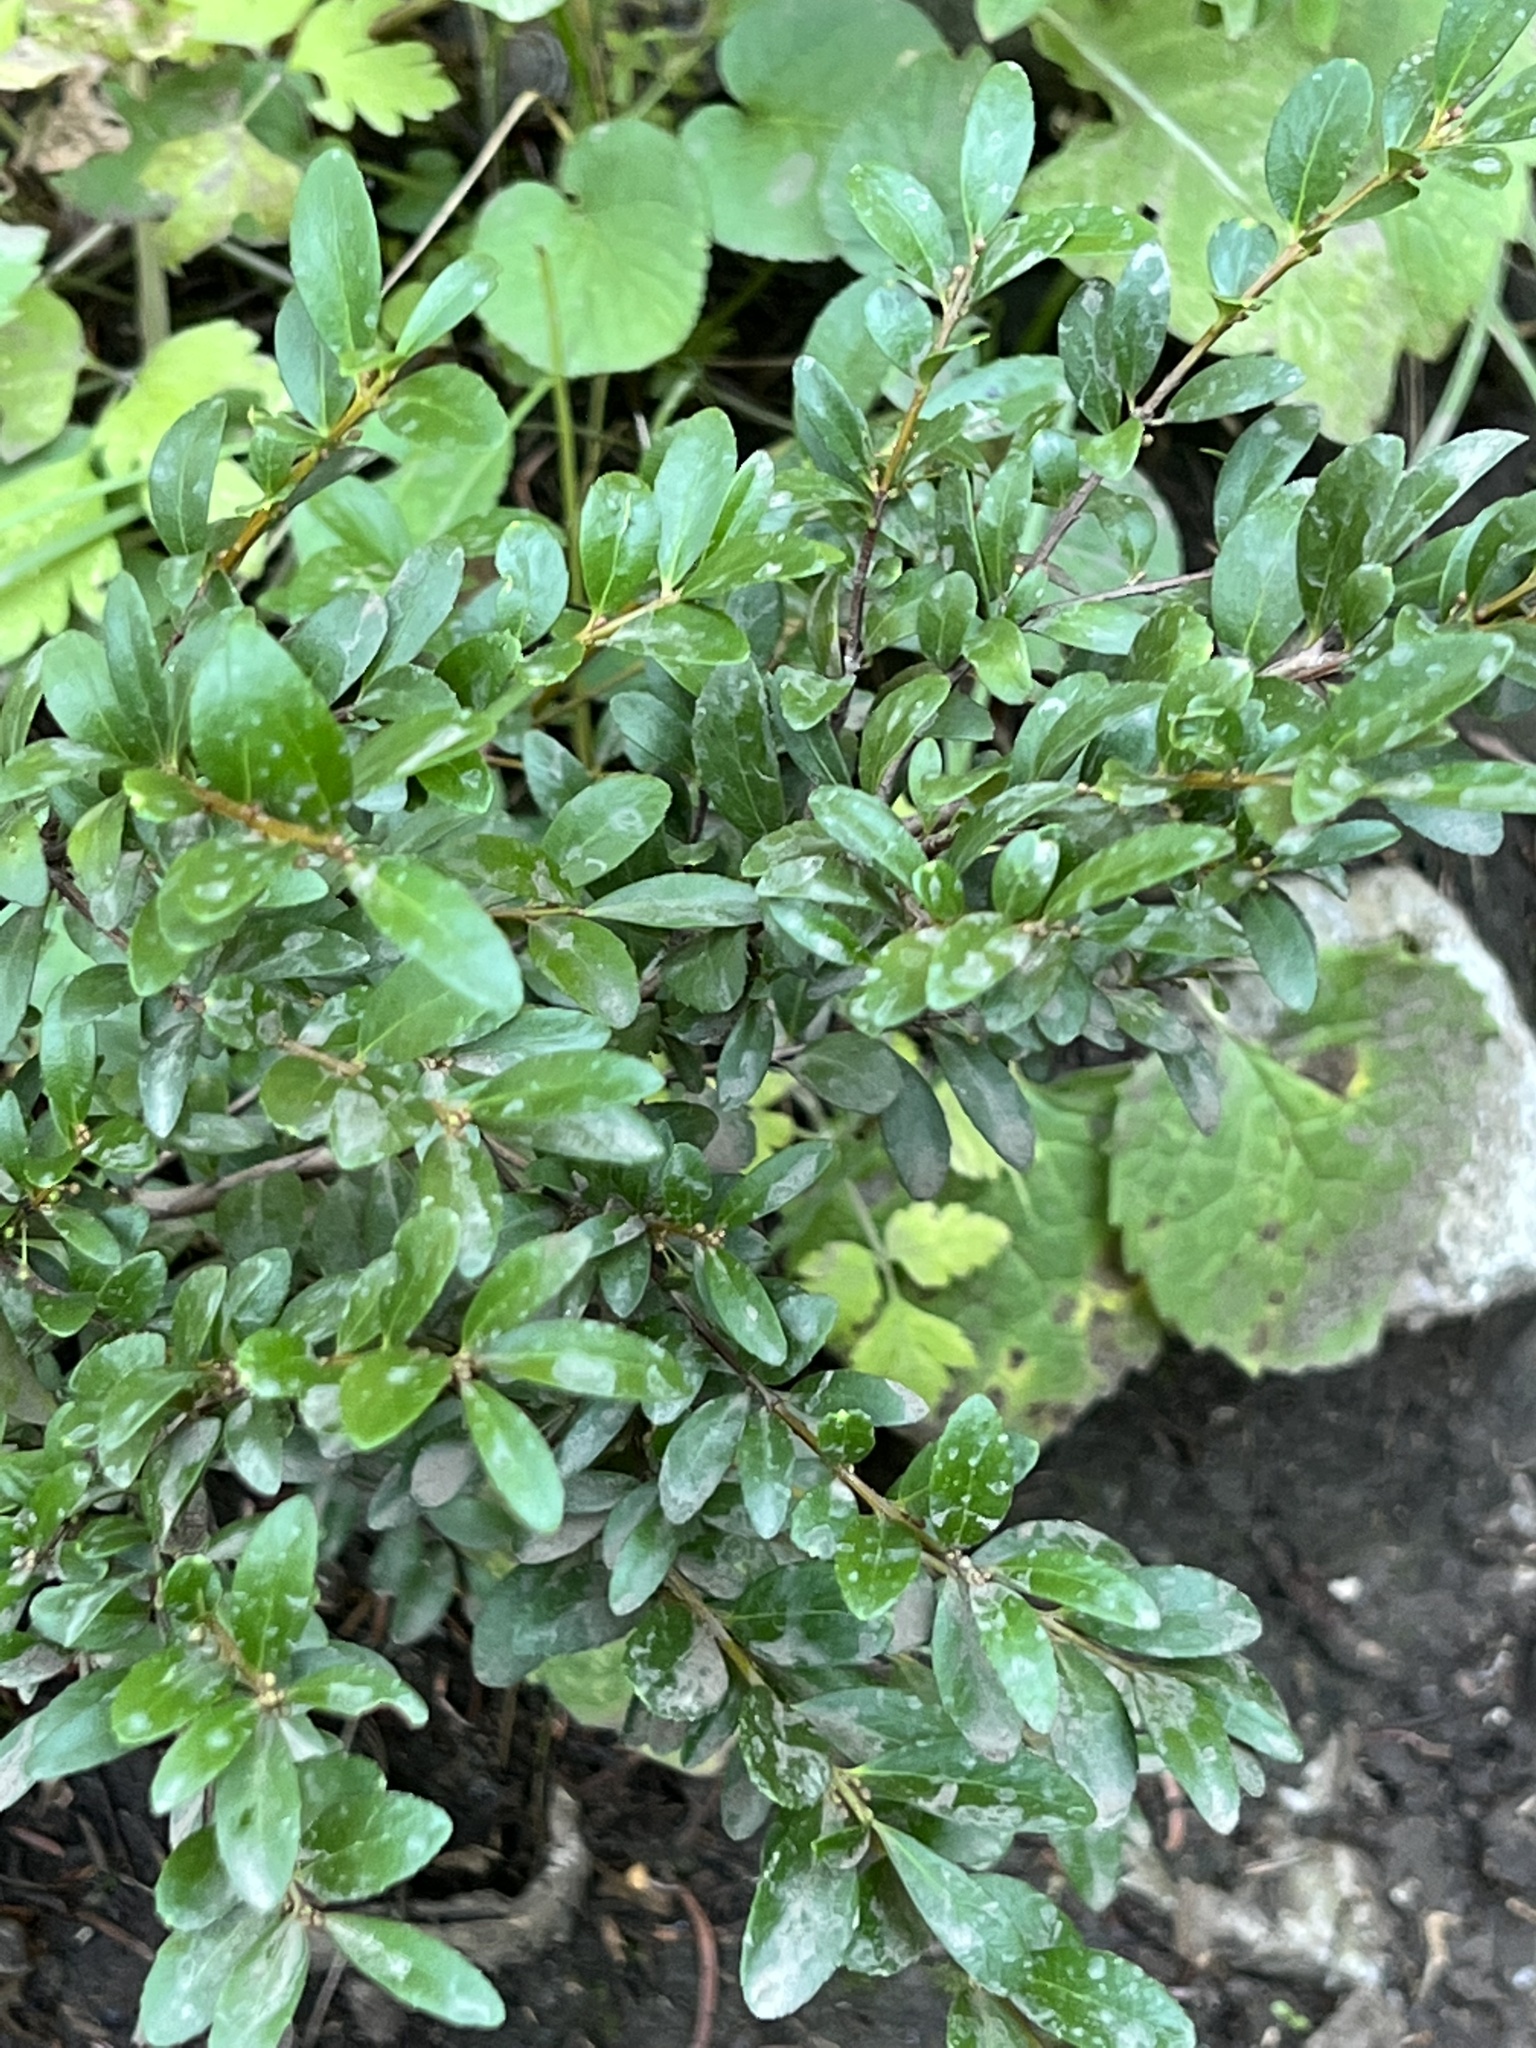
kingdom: Plantae
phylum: Tracheophyta
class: Magnoliopsida
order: Celastrales
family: Celastraceae
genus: Paxistima
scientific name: Paxistima myrsinites
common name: Mountain-lover
